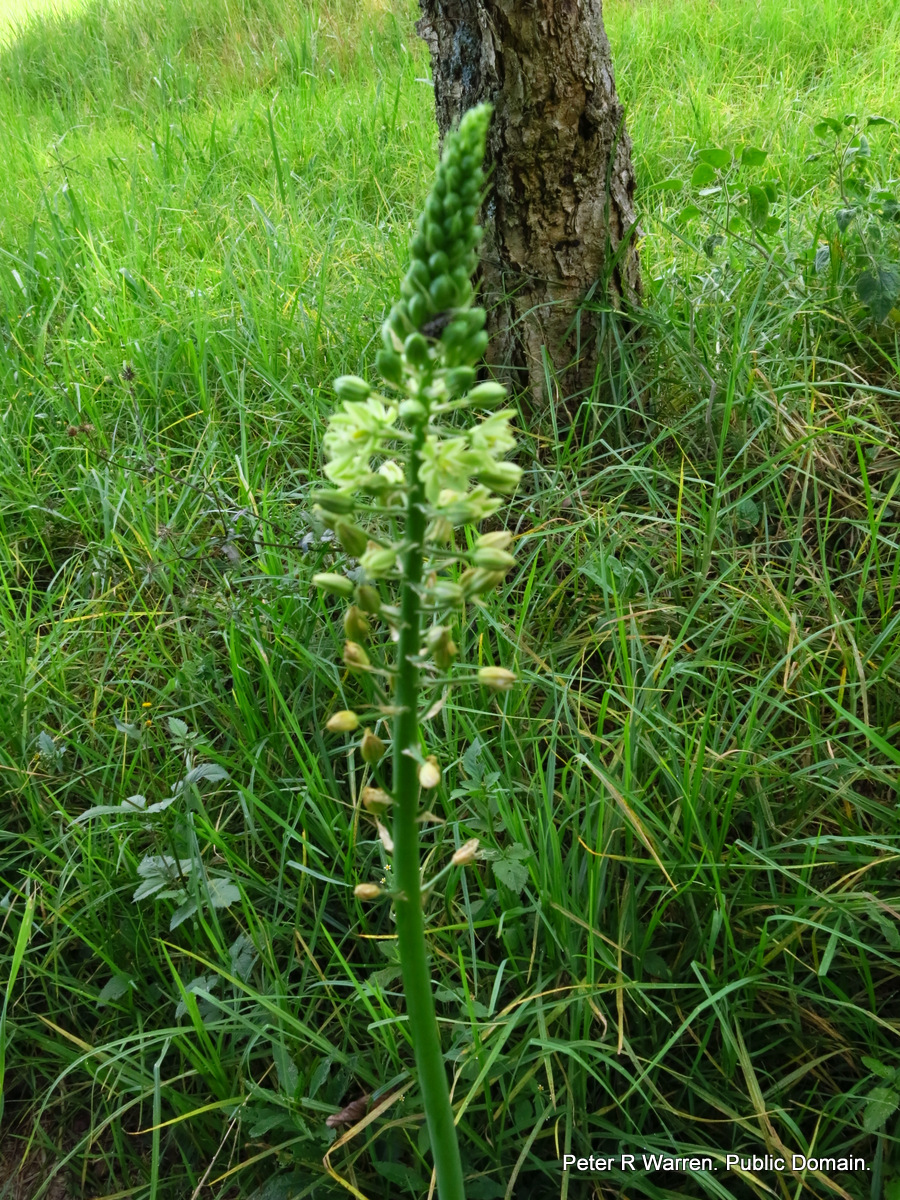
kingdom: Plantae
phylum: Tracheophyta
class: Liliopsida
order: Asparagales
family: Asparagaceae
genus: Albuca
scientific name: Albuca virens
